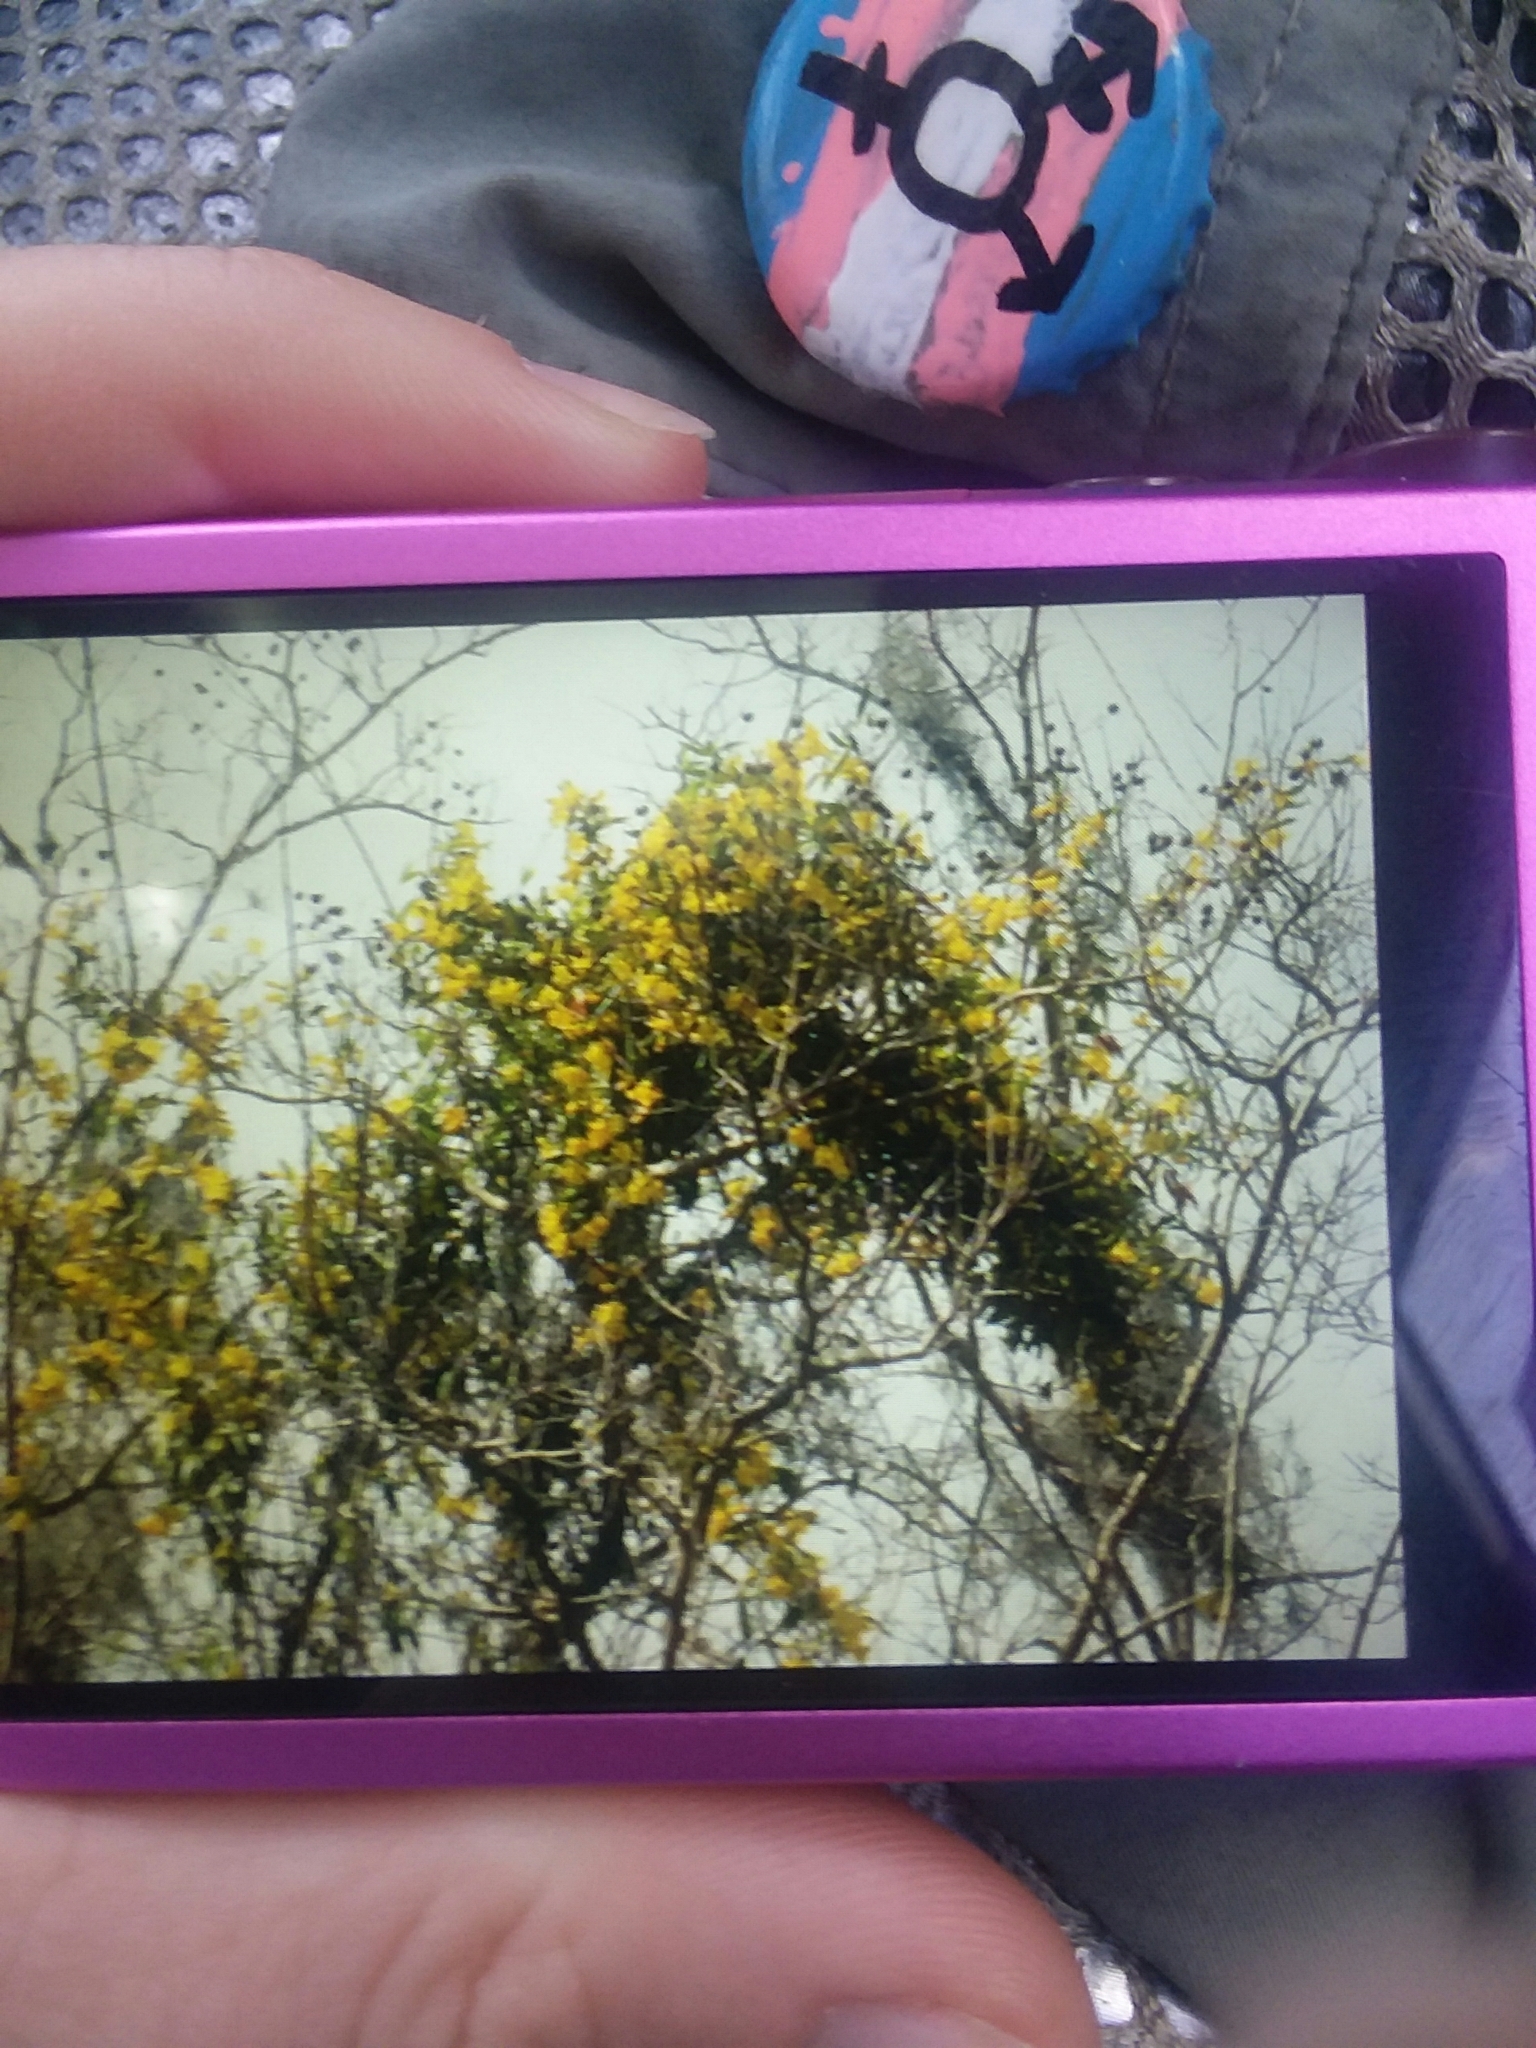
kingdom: Plantae
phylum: Tracheophyta
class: Magnoliopsida
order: Gentianales
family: Gelsemiaceae
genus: Gelsemium
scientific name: Gelsemium sempervirens
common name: Carolina-jasmine
